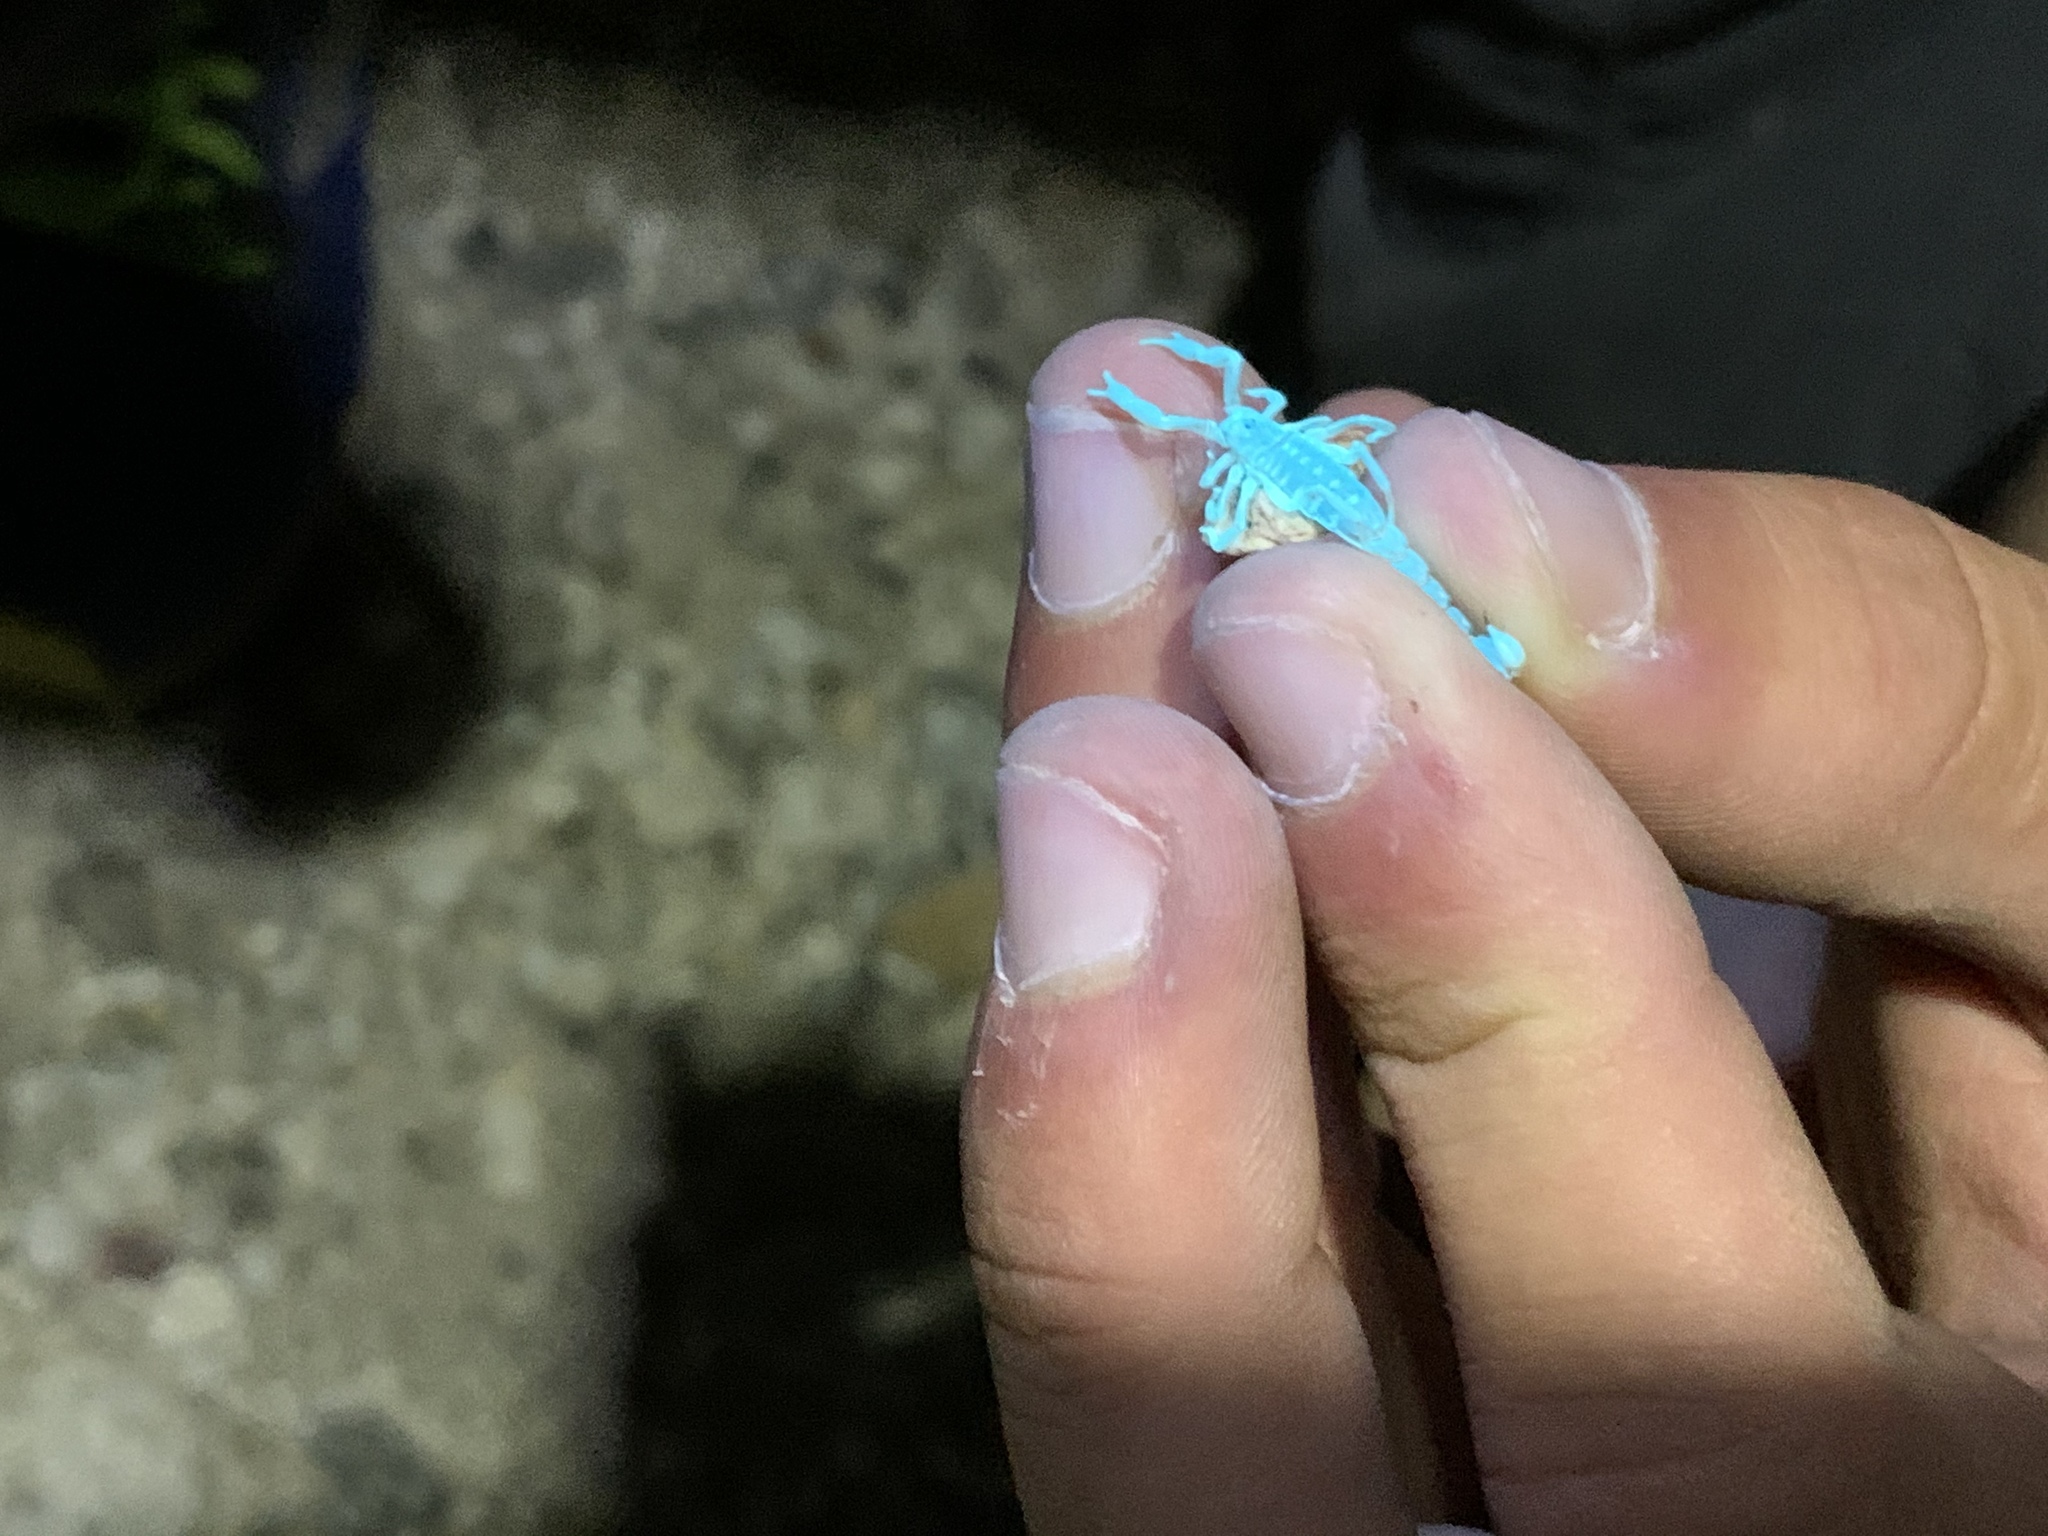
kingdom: Animalia
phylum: Arthropoda
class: Arachnida
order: Scorpiones
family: Vaejovidae
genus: Paravaejovis
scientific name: Paravaejovis spinigerus
